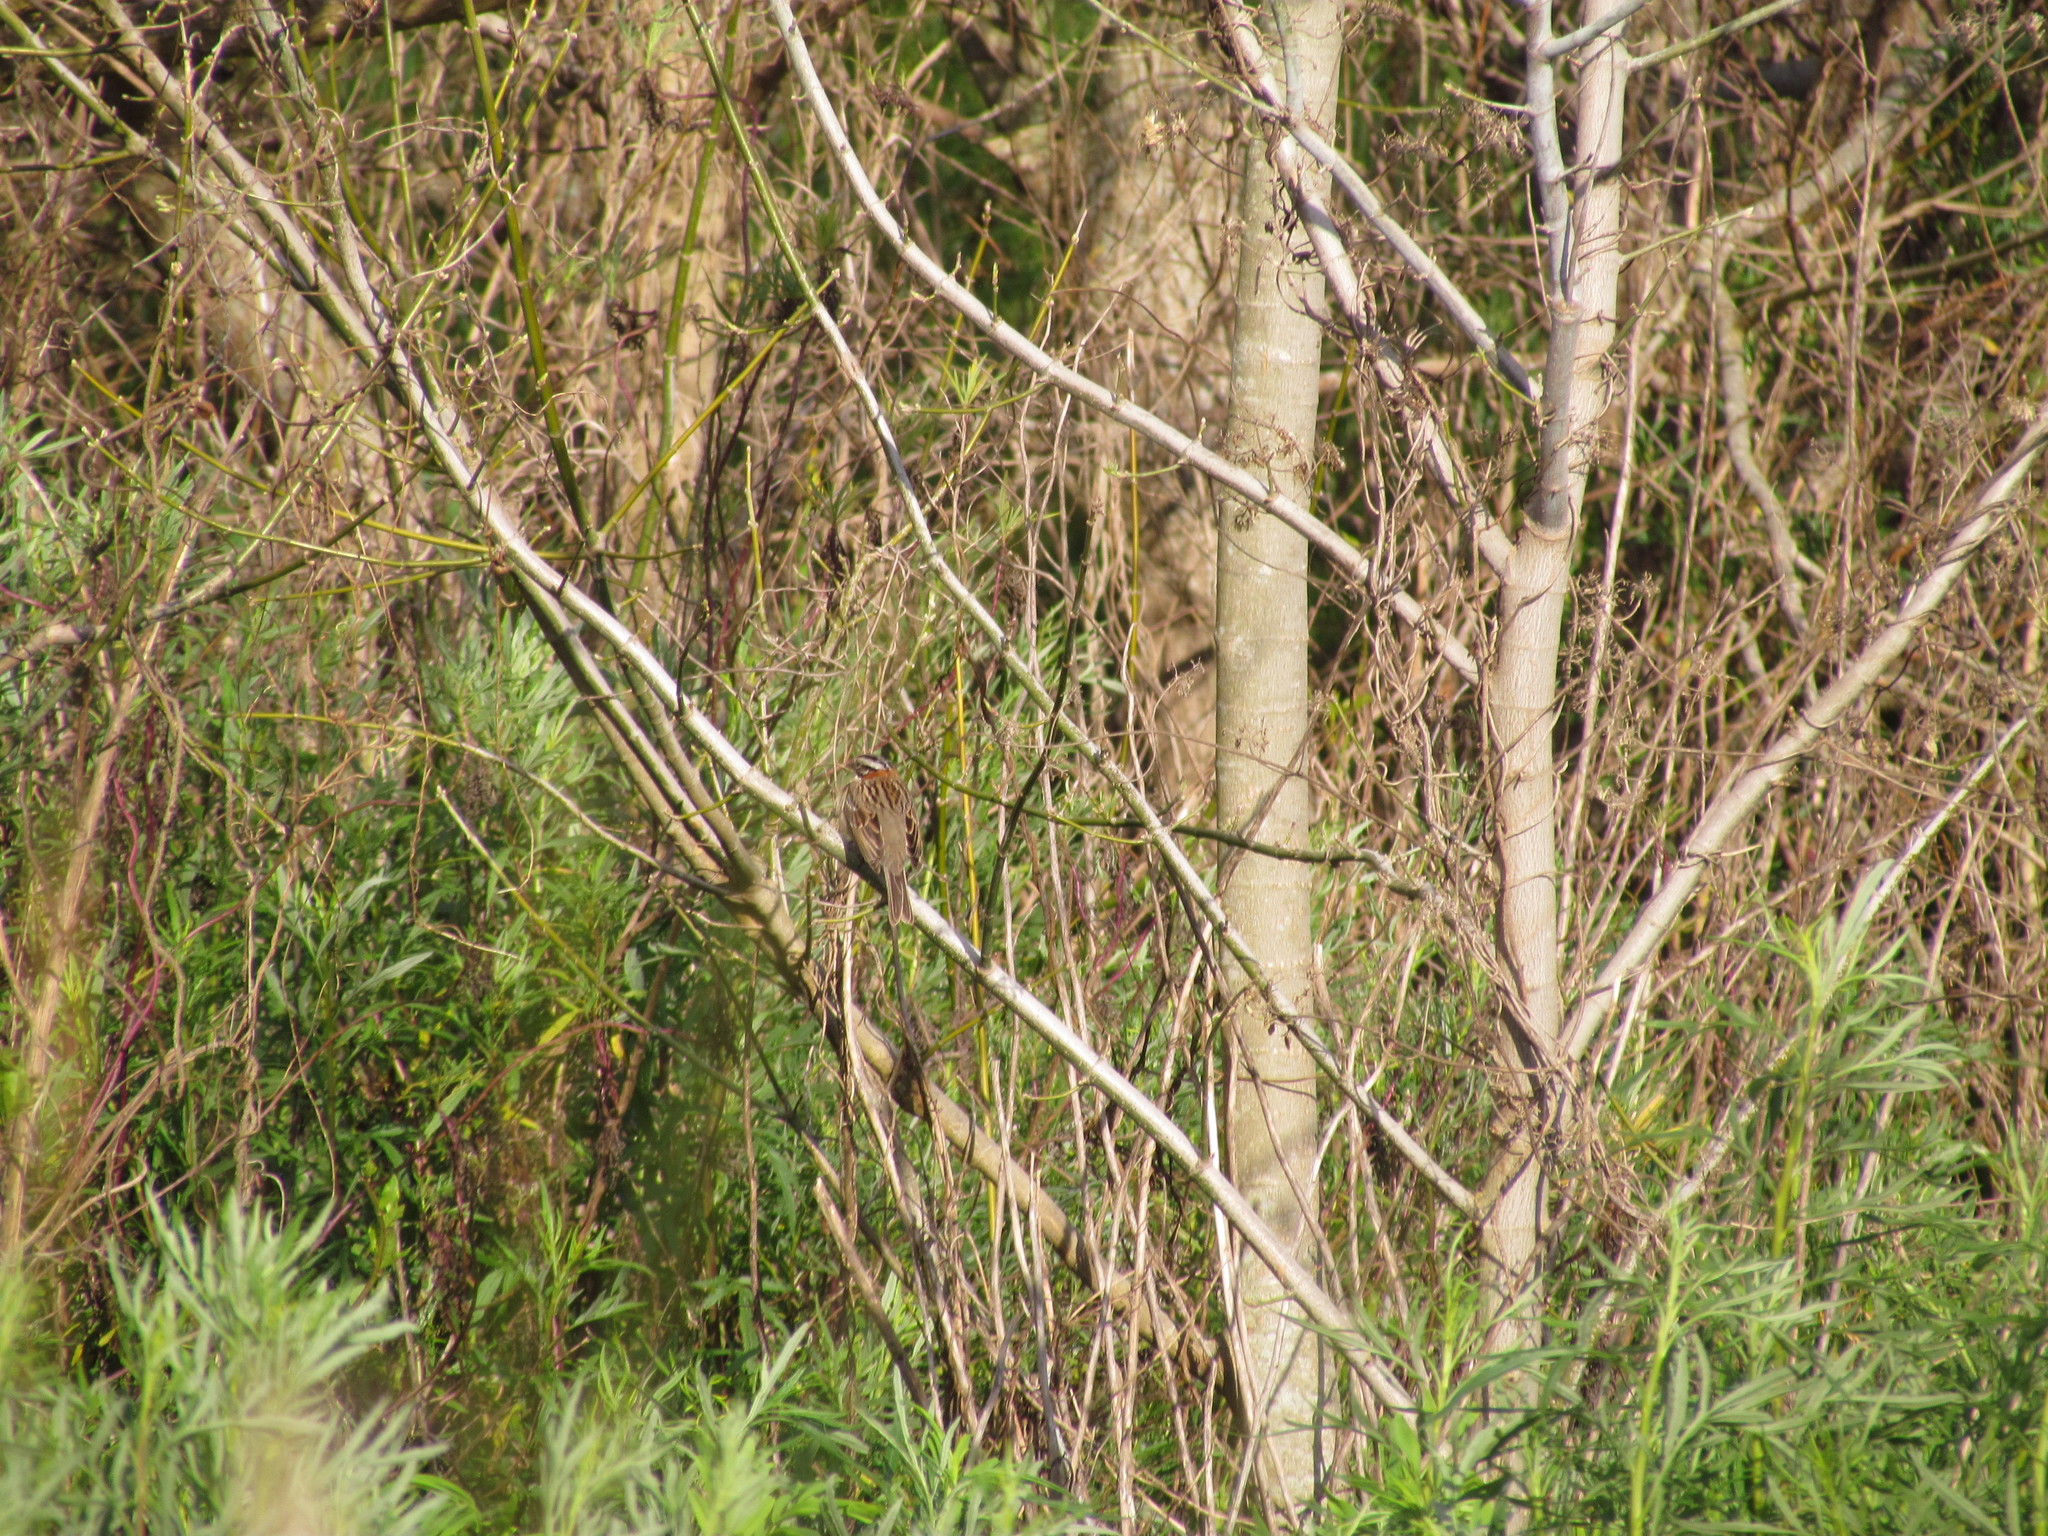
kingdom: Animalia
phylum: Chordata
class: Aves
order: Passeriformes
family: Passerellidae
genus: Zonotrichia
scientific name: Zonotrichia capensis
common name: Rufous-collared sparrow
